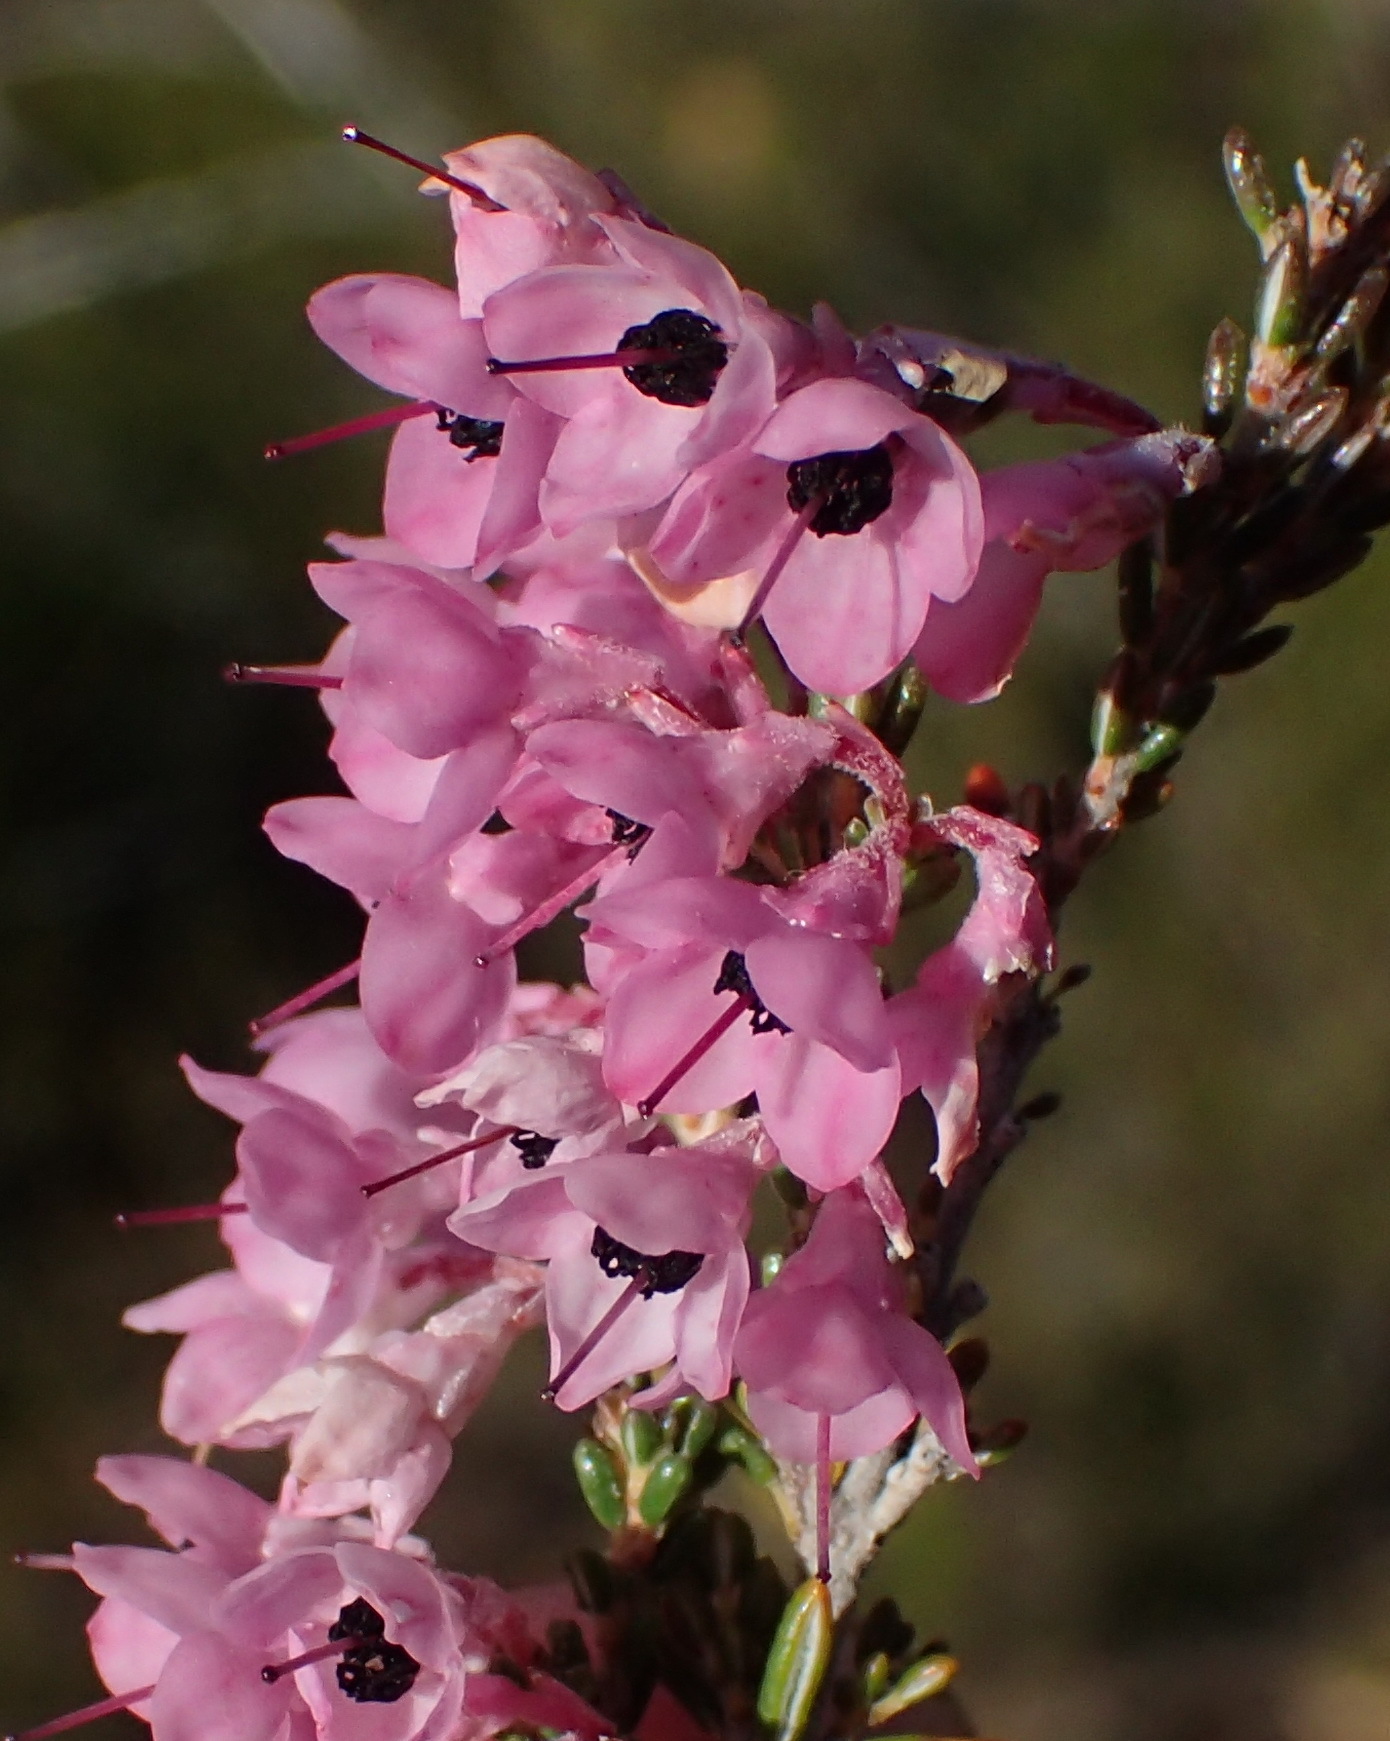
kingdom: Plantae
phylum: Tracheophyta
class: Magnoliopsida
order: Ericales
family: Ericaceae
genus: Erica
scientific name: Erica melanthera
